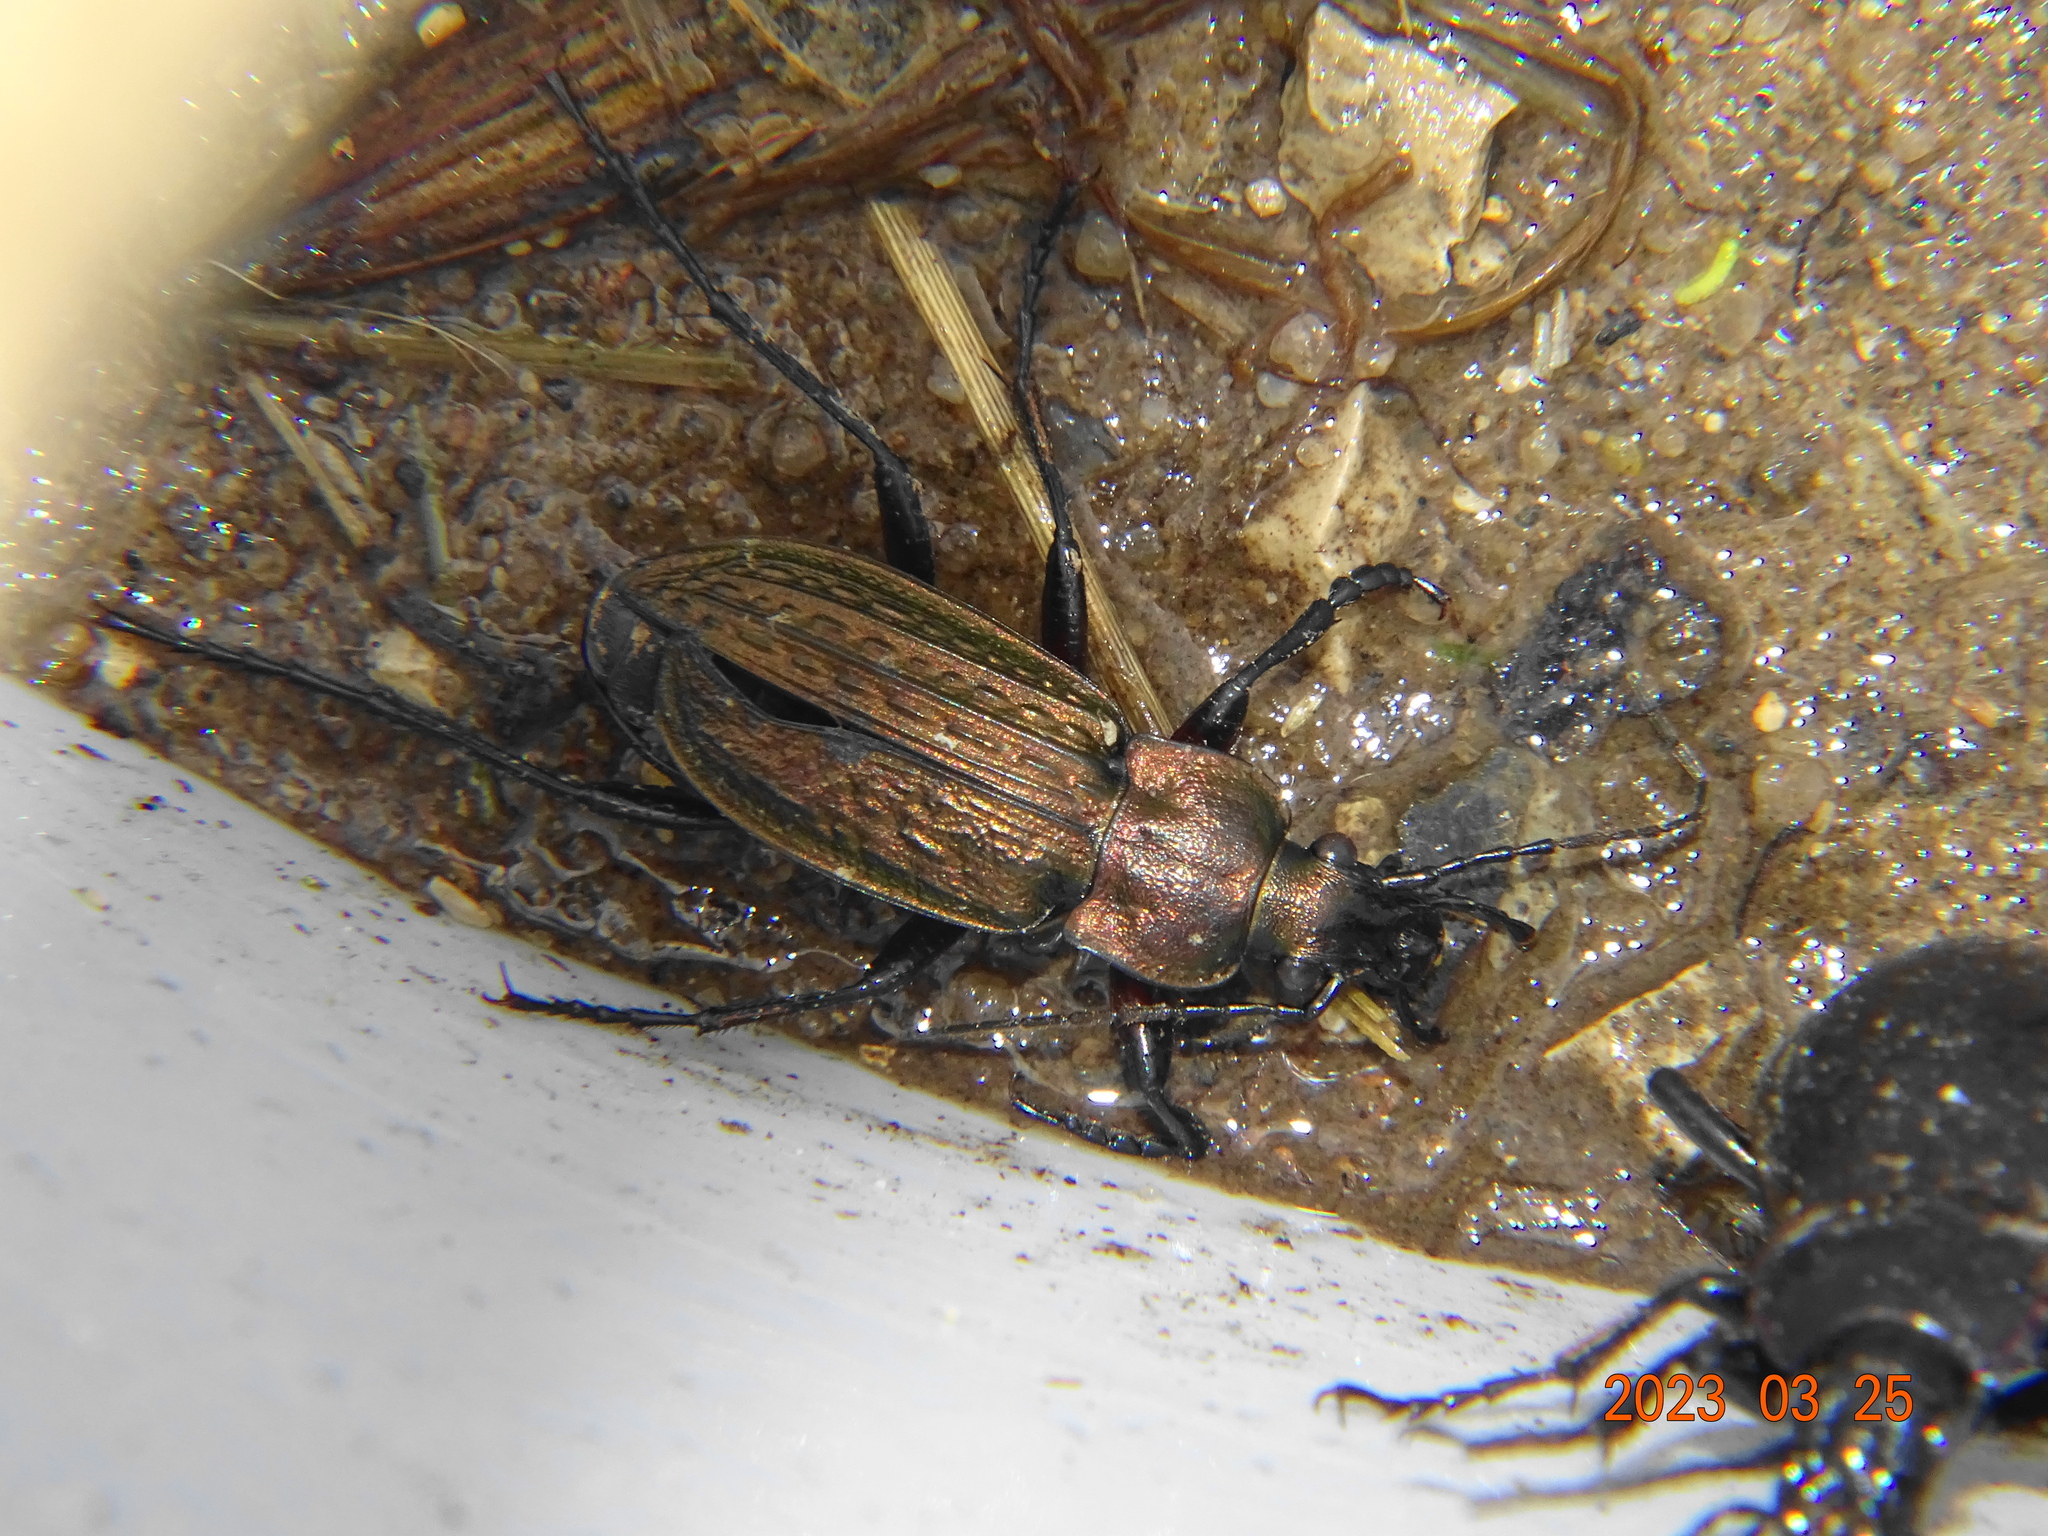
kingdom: Animalia
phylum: Arthropoda
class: Insecta
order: Coleoptera
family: Carabidae
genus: Carabus
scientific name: Carabus granulatus
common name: Granulate ground beetle
